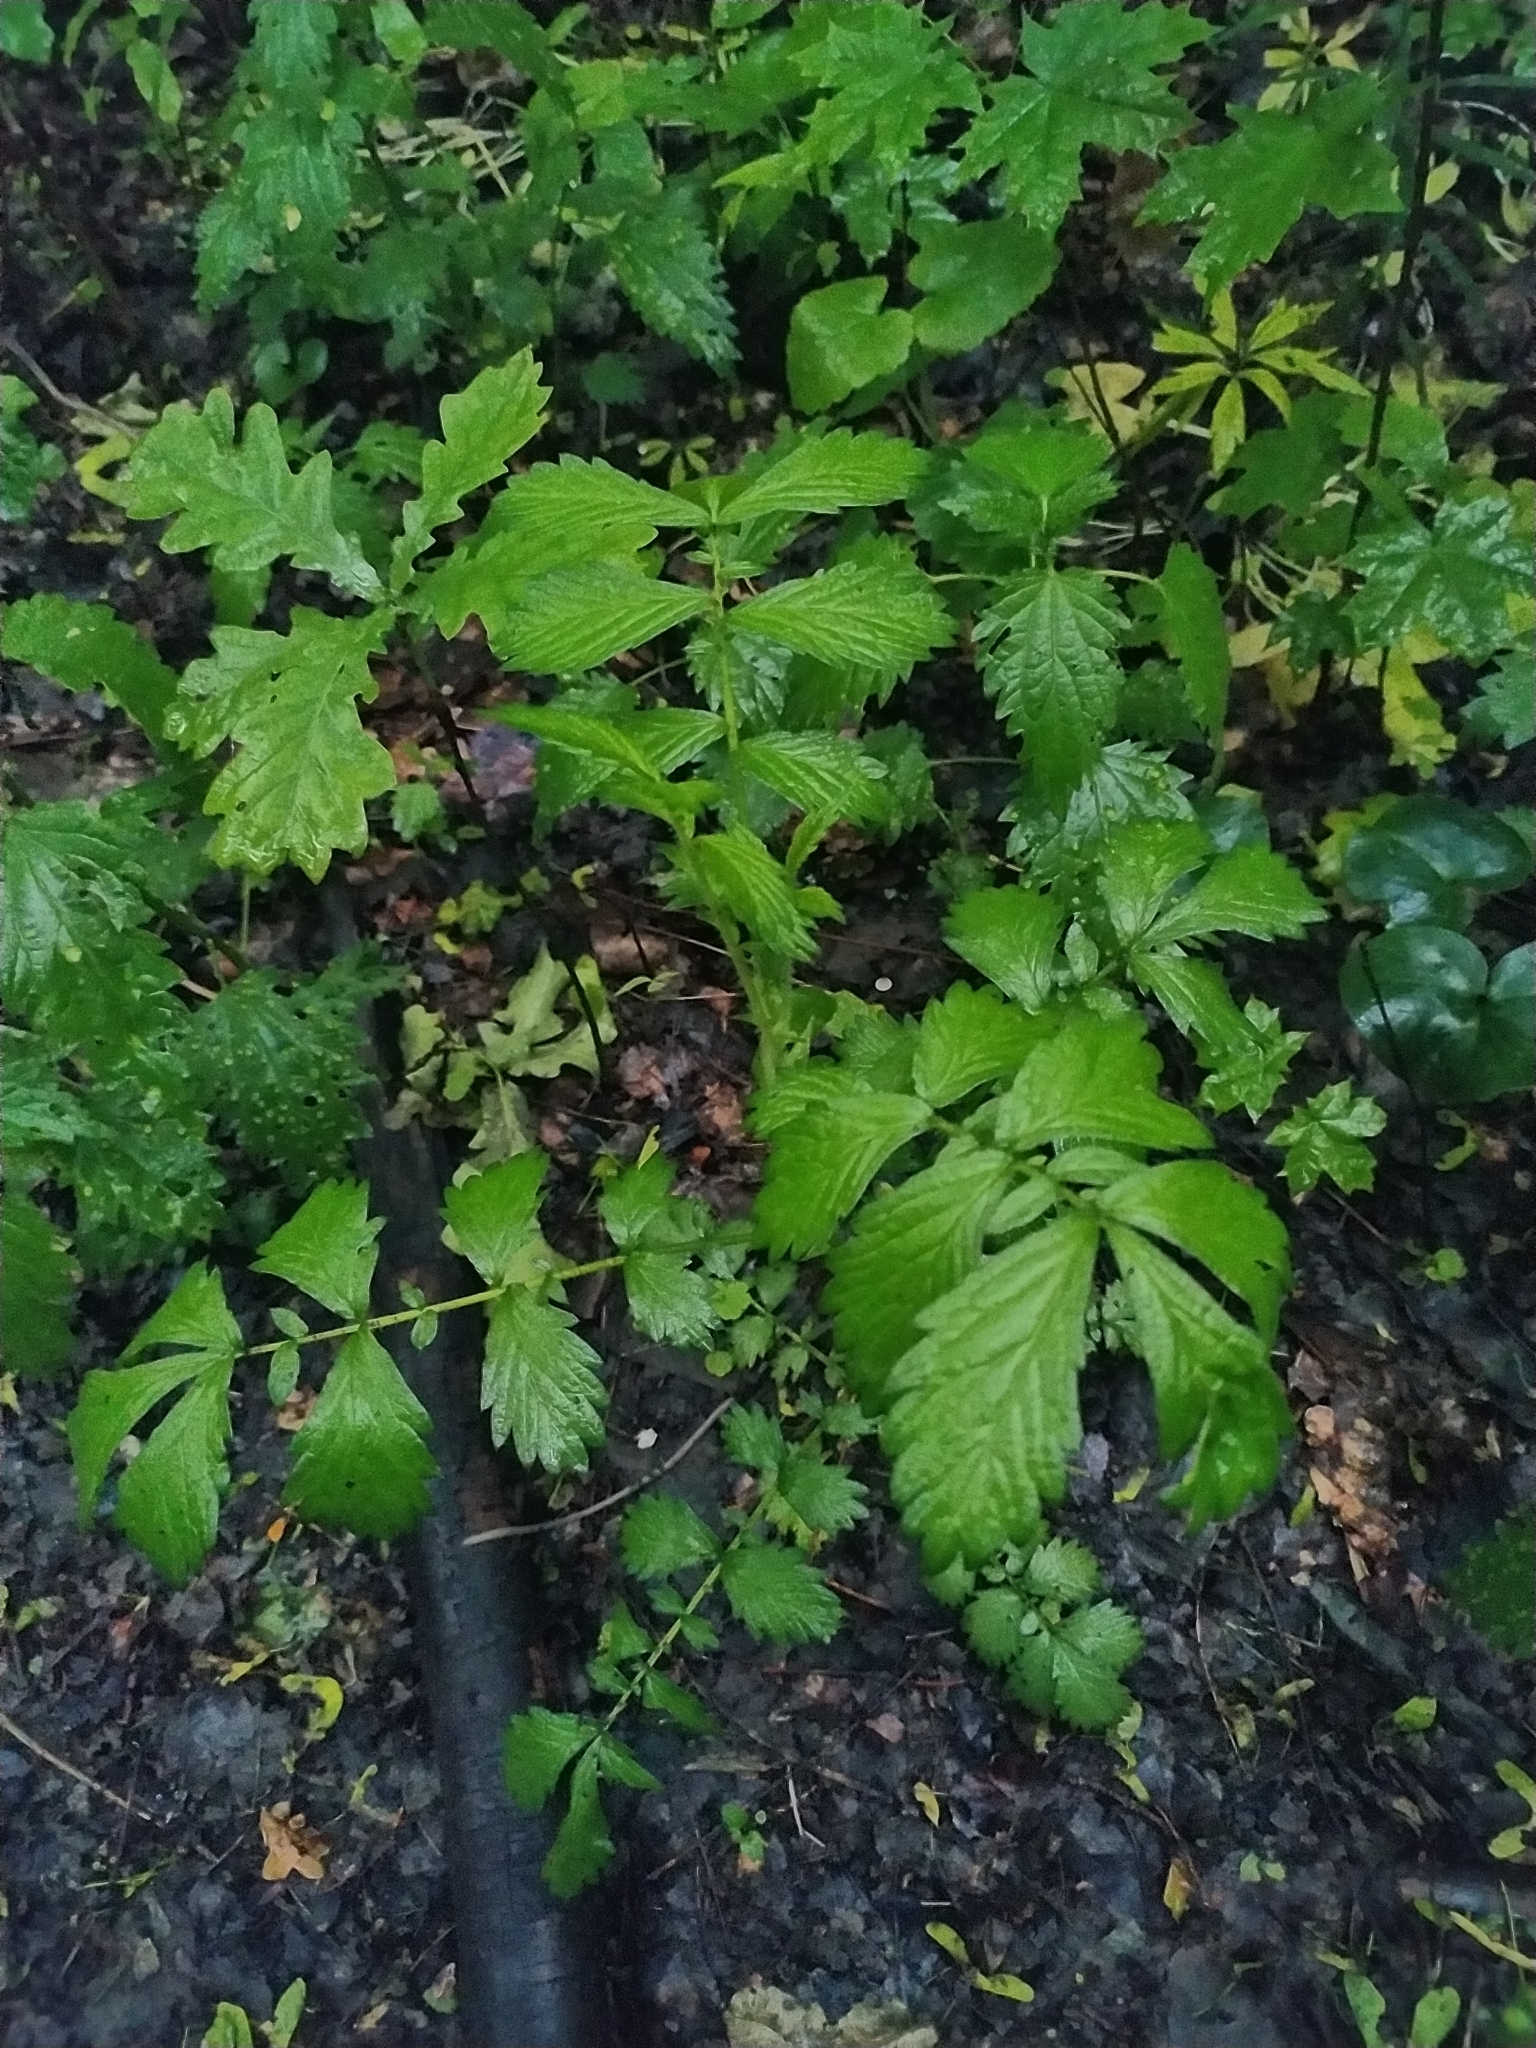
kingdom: Plantae
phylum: Tracheophyta
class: Magnoliopsida
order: Rosales
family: Rosaceae
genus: Agrimonia
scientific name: Agrimonia pilosa
